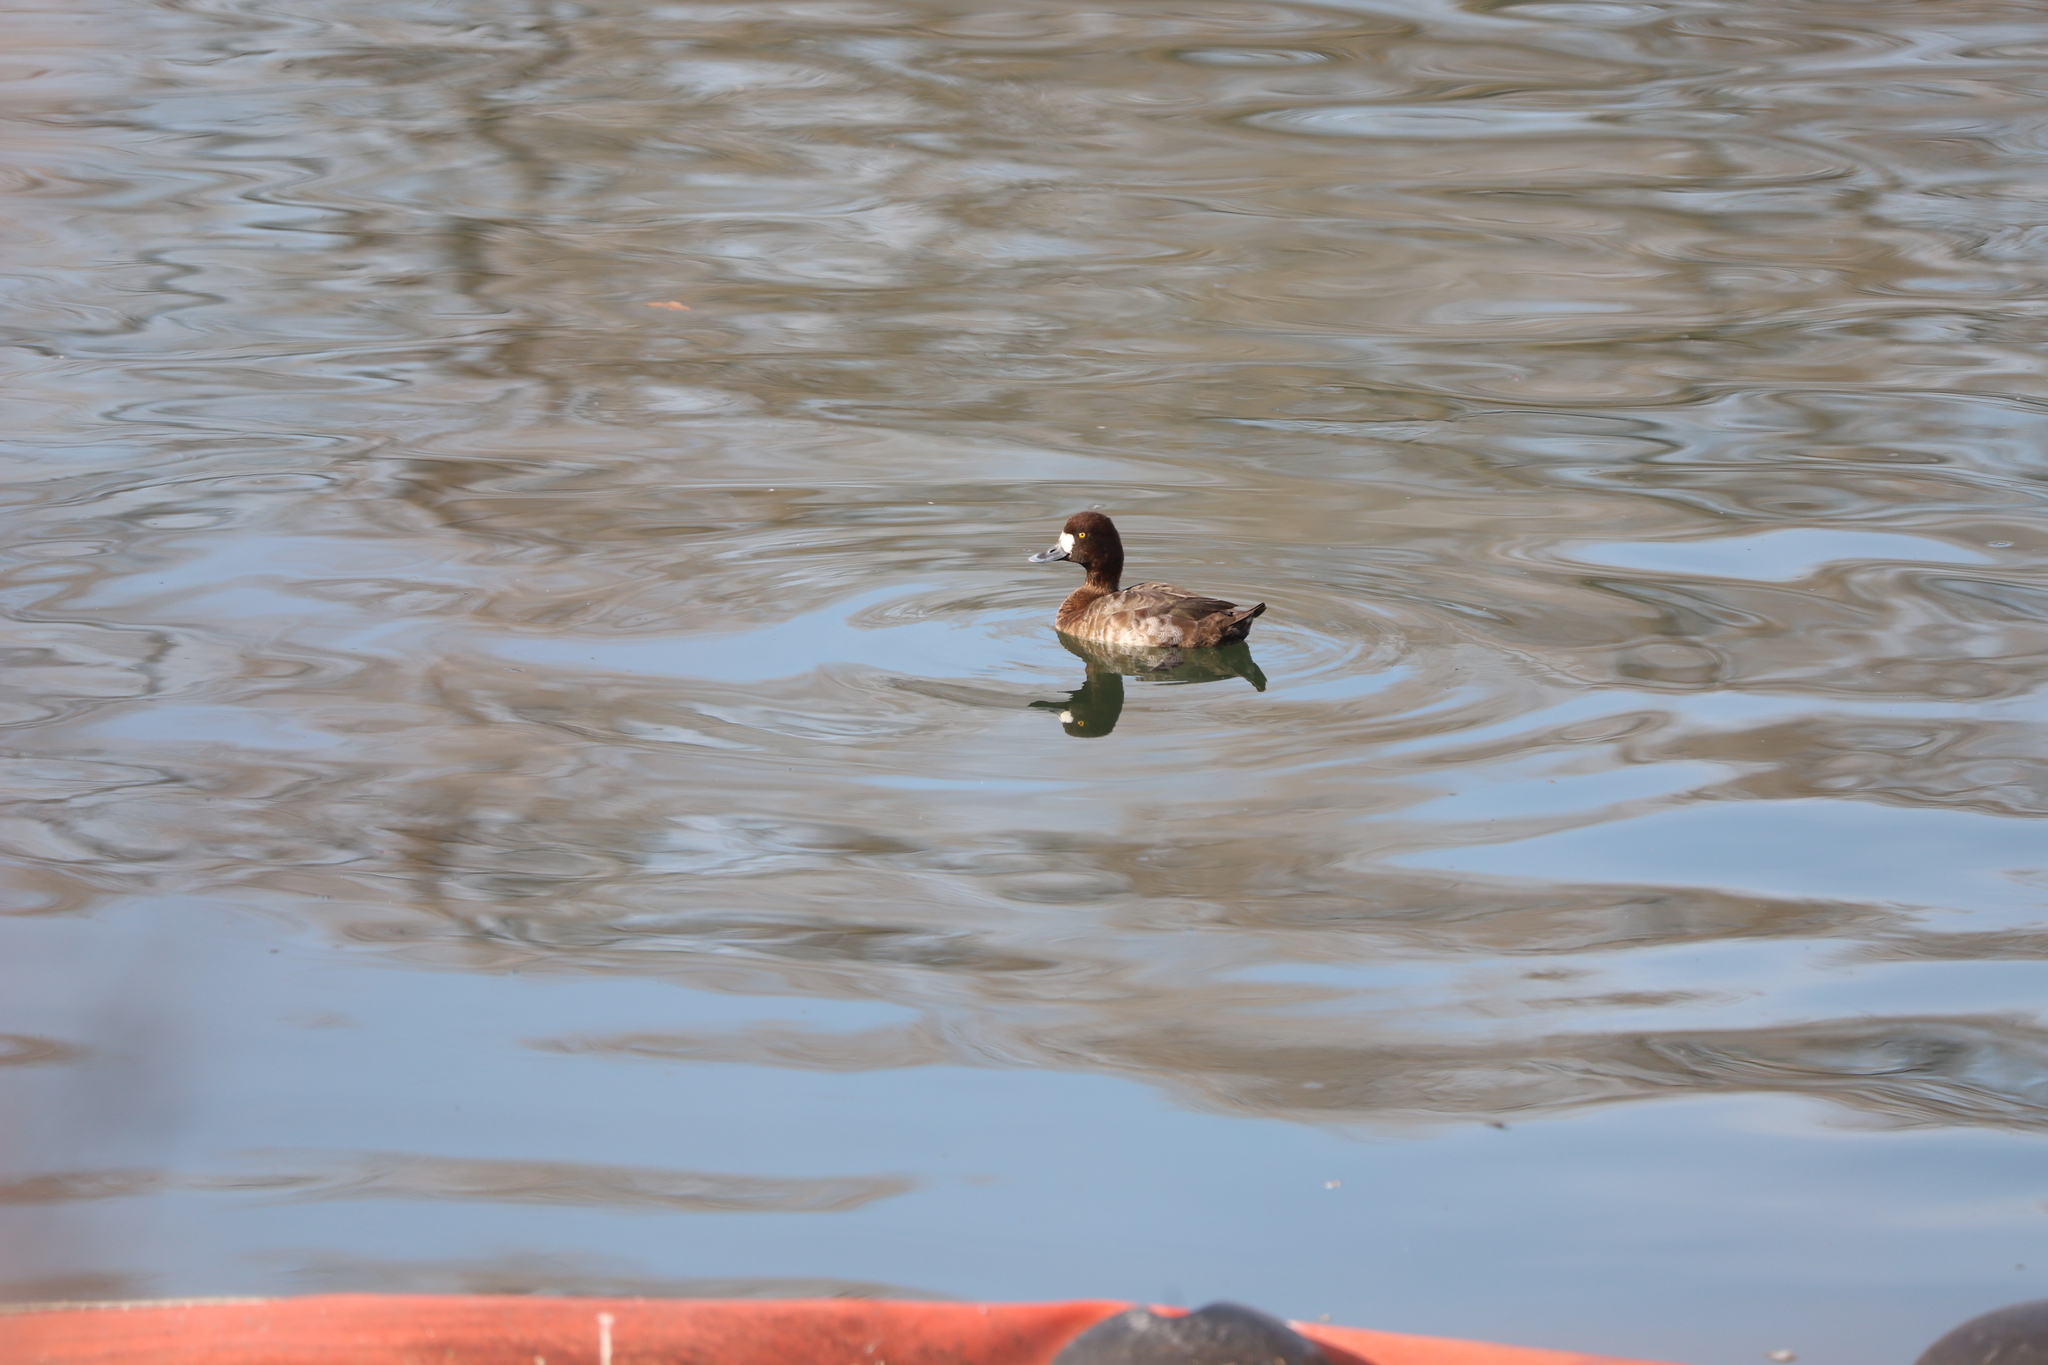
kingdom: Animalia
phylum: Chordata
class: Aves
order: Anseriformes
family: Anatidae
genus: Aythya
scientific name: Aythya affinis
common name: Lesser scaup
